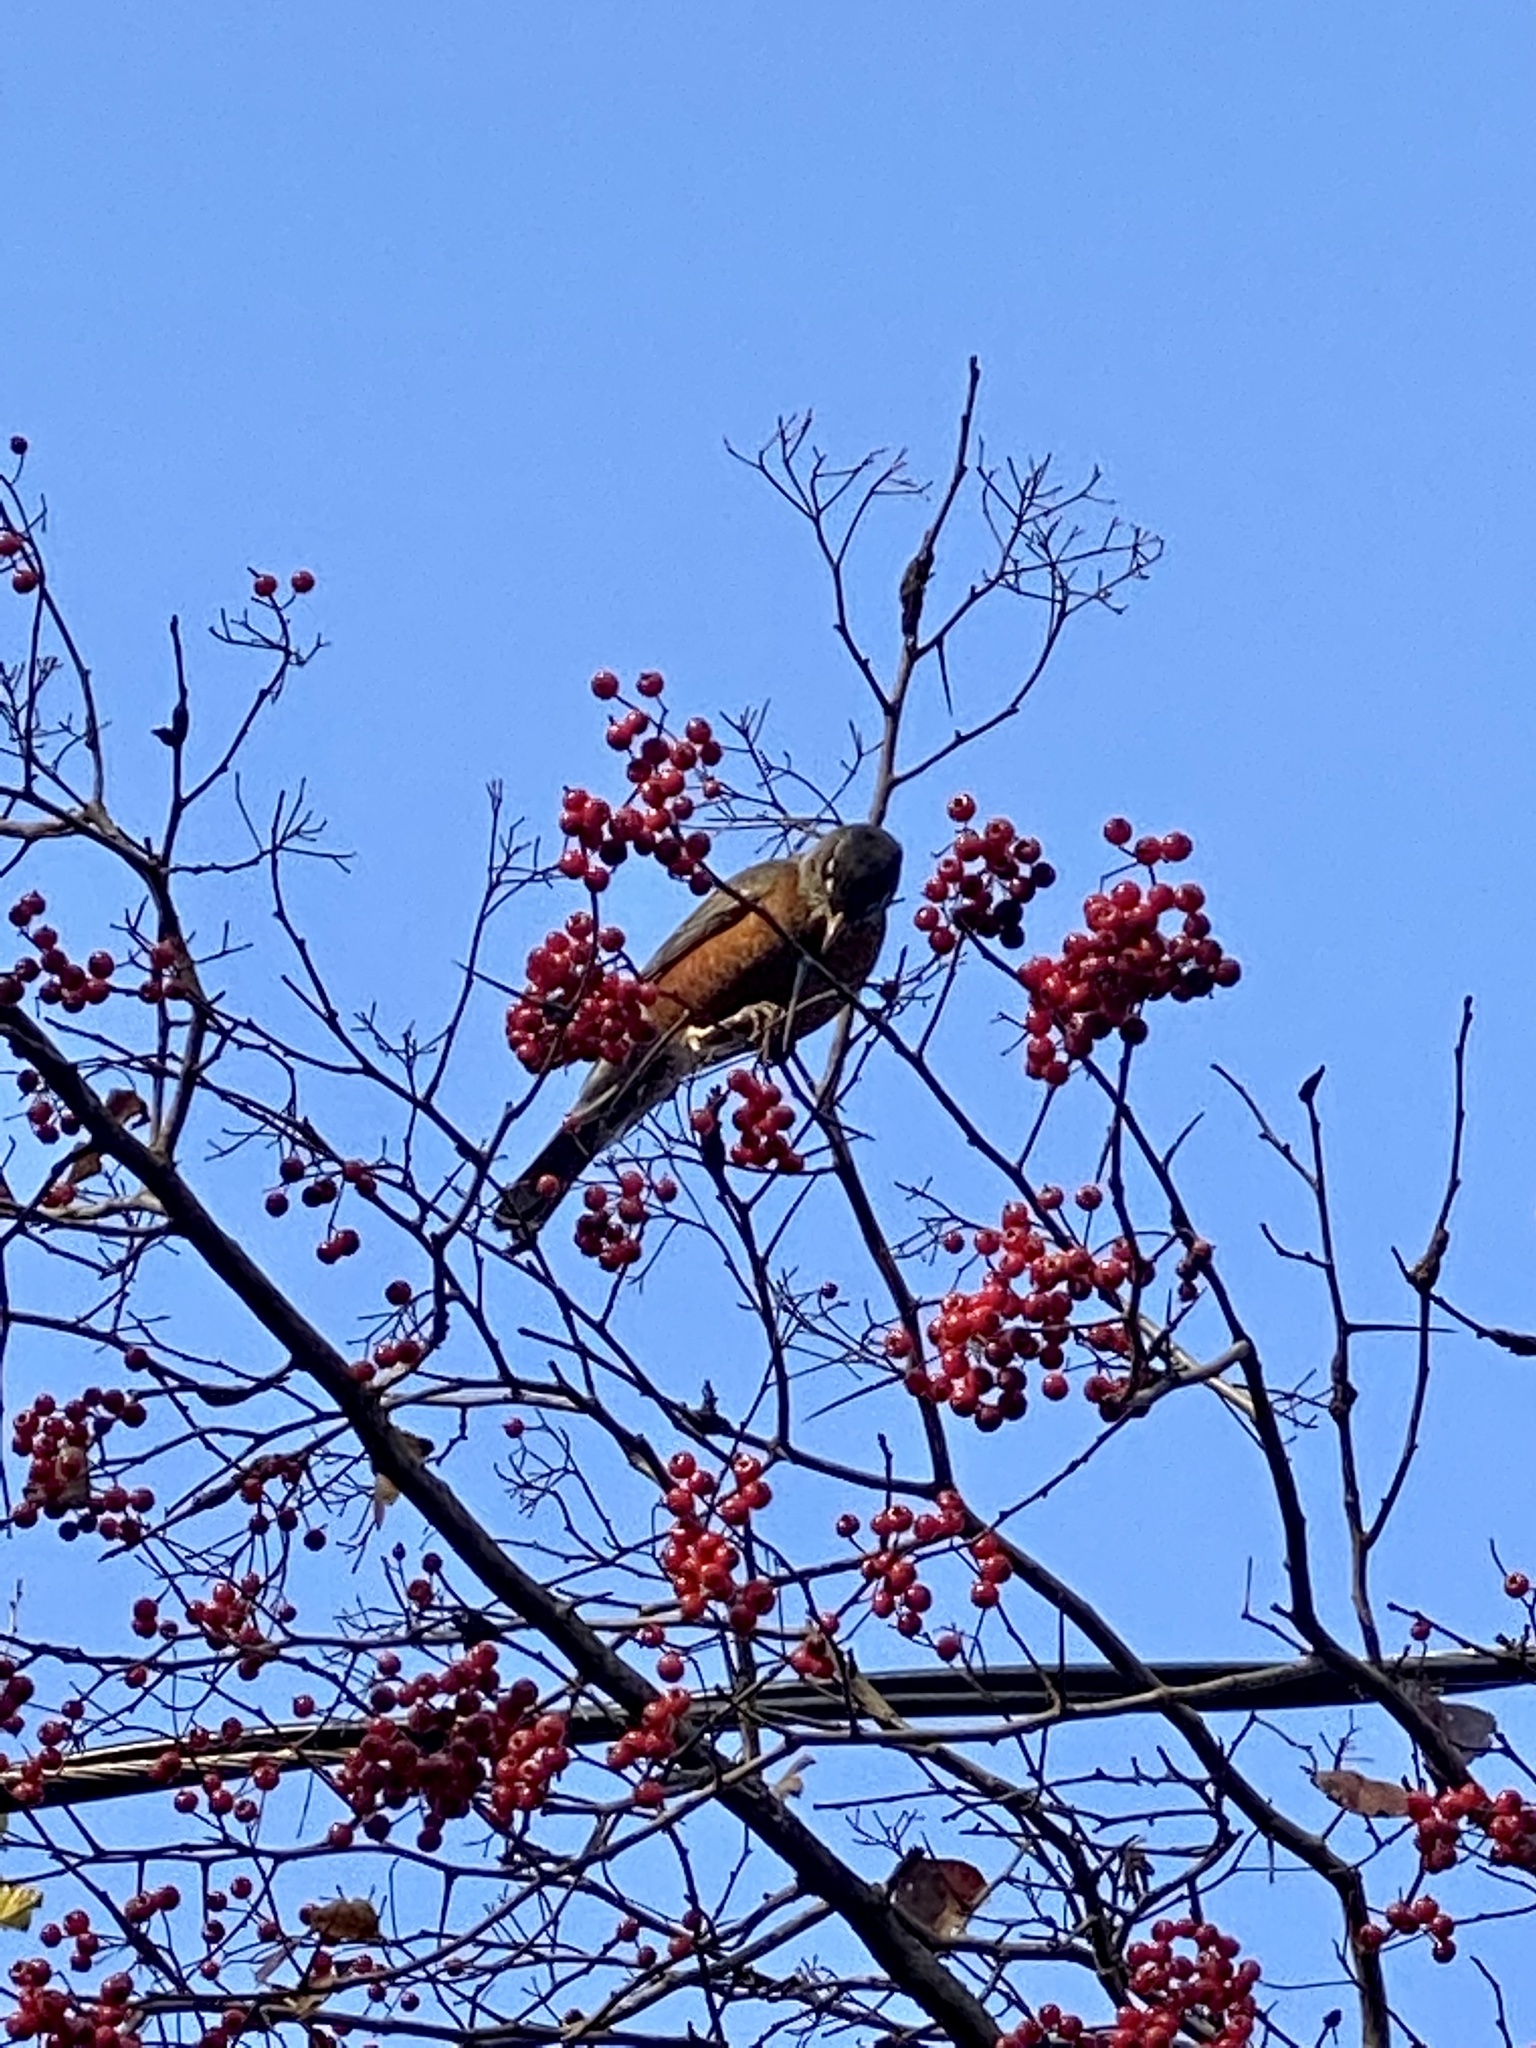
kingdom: Animalia
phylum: Chordata
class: Aves
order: Passeriformes
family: Turdidae
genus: Turdus
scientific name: Turdus migratorius
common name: American robin
